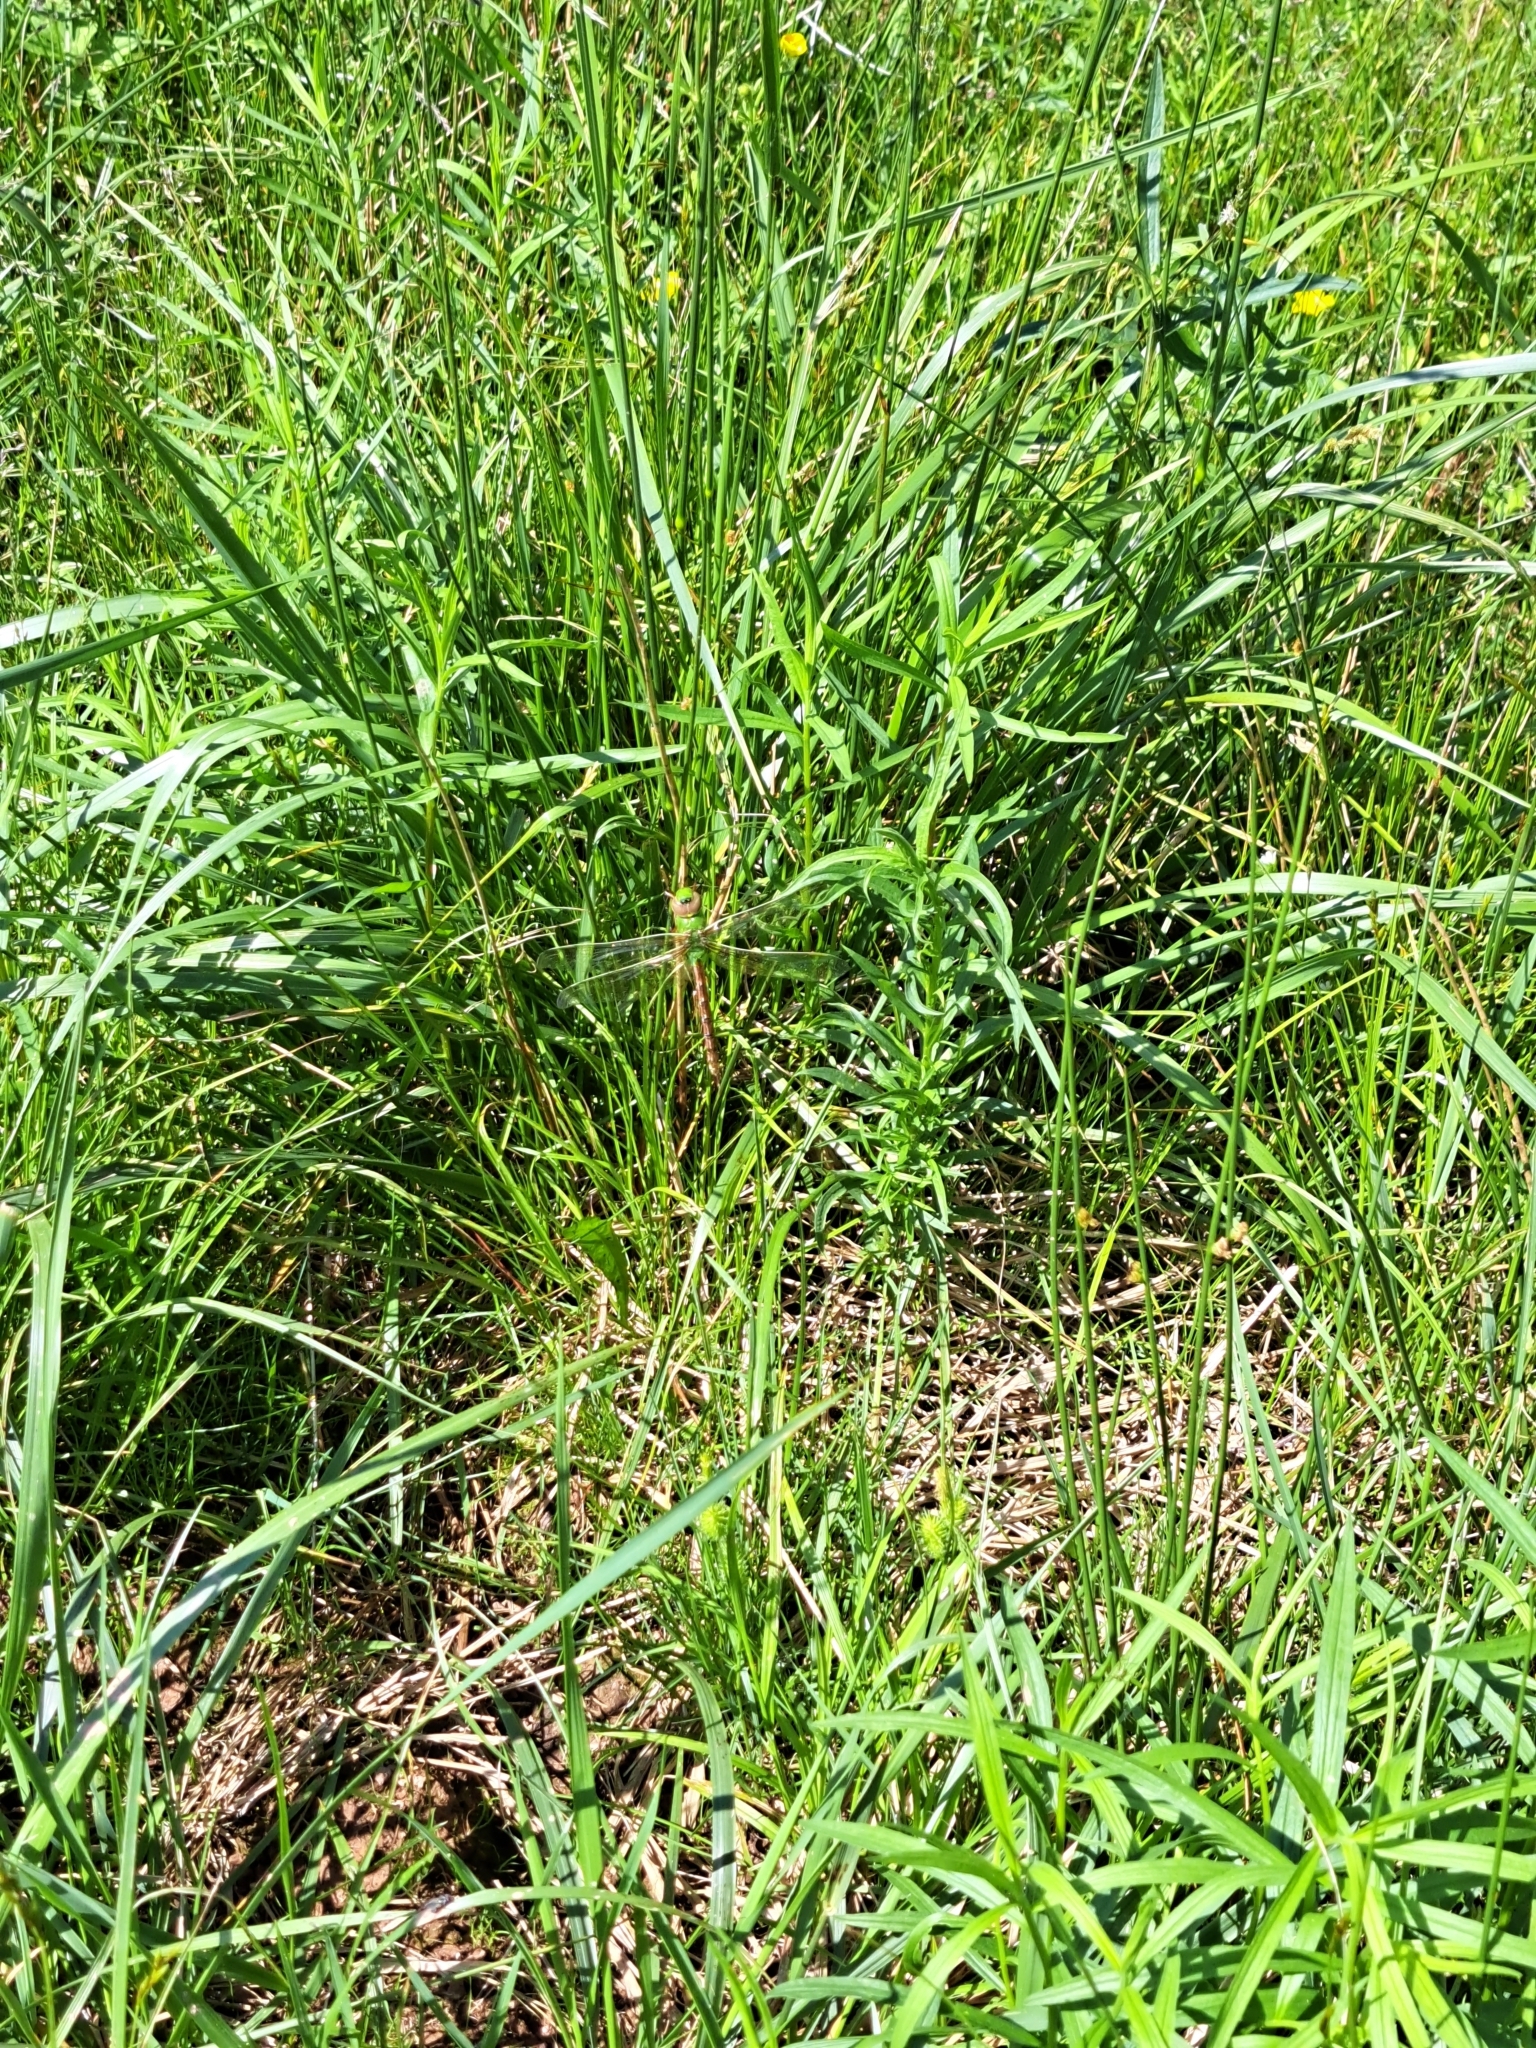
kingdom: Animalia
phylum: Arthropoda
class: Insecta
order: Odonata
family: Aeshnidae
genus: Anax
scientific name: Anax junius
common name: Common green darner
